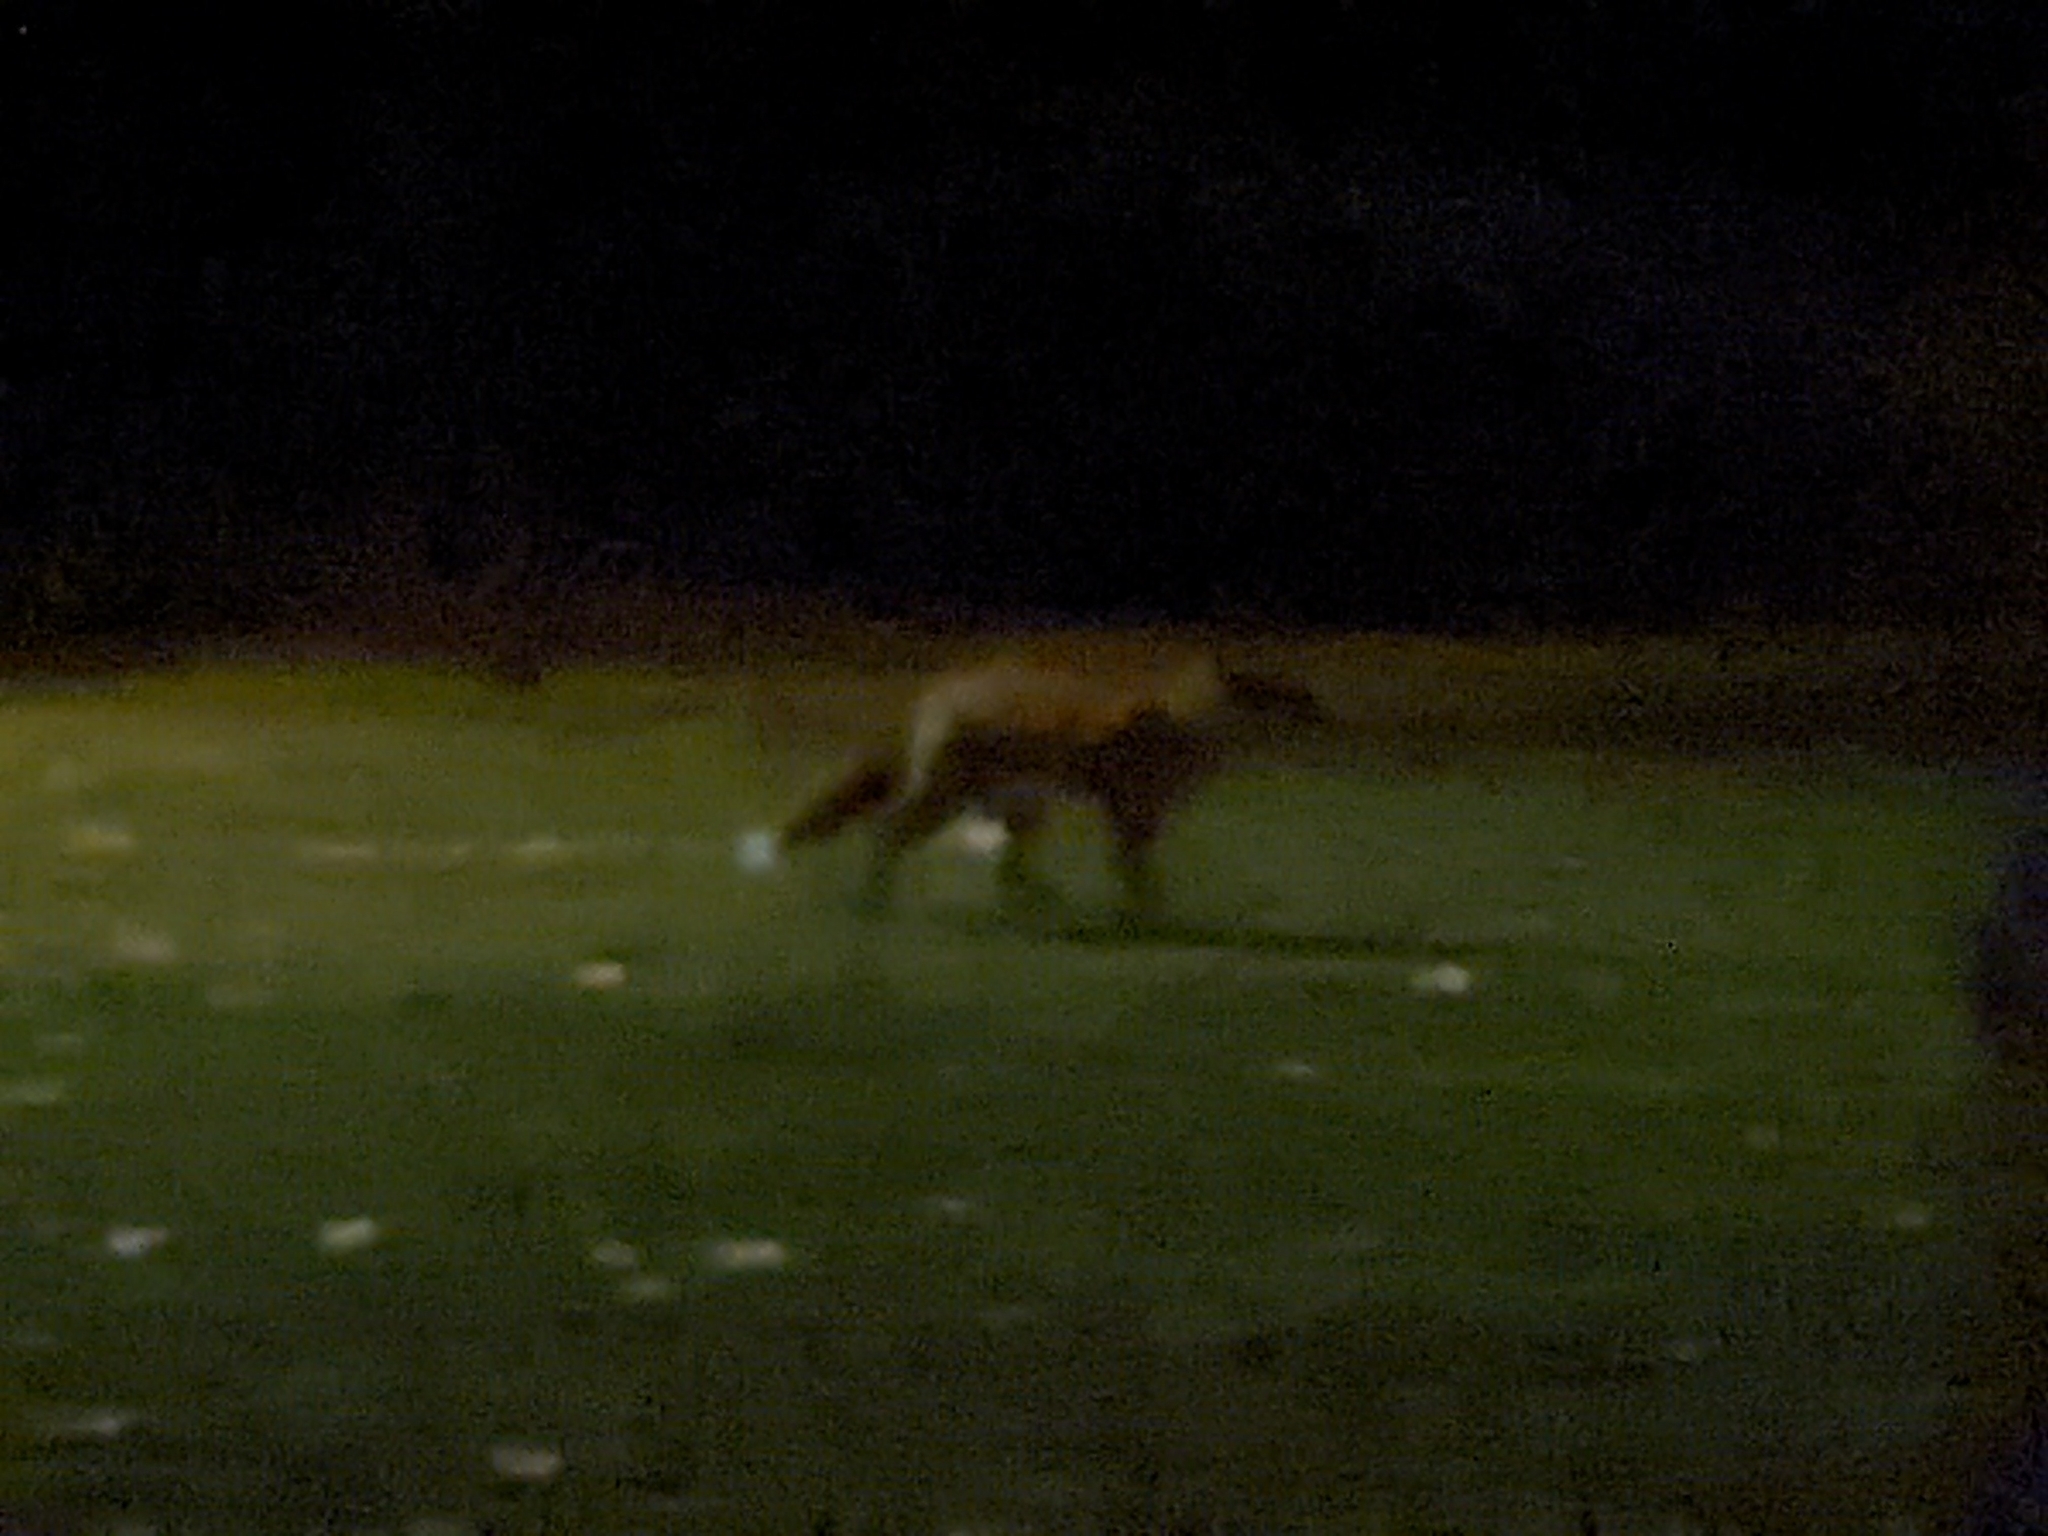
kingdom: Animalia
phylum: Chordata
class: Mammalia
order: Carnivora
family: Canidae
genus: Vulpes
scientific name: Vulpes vulpes
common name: Red fox
